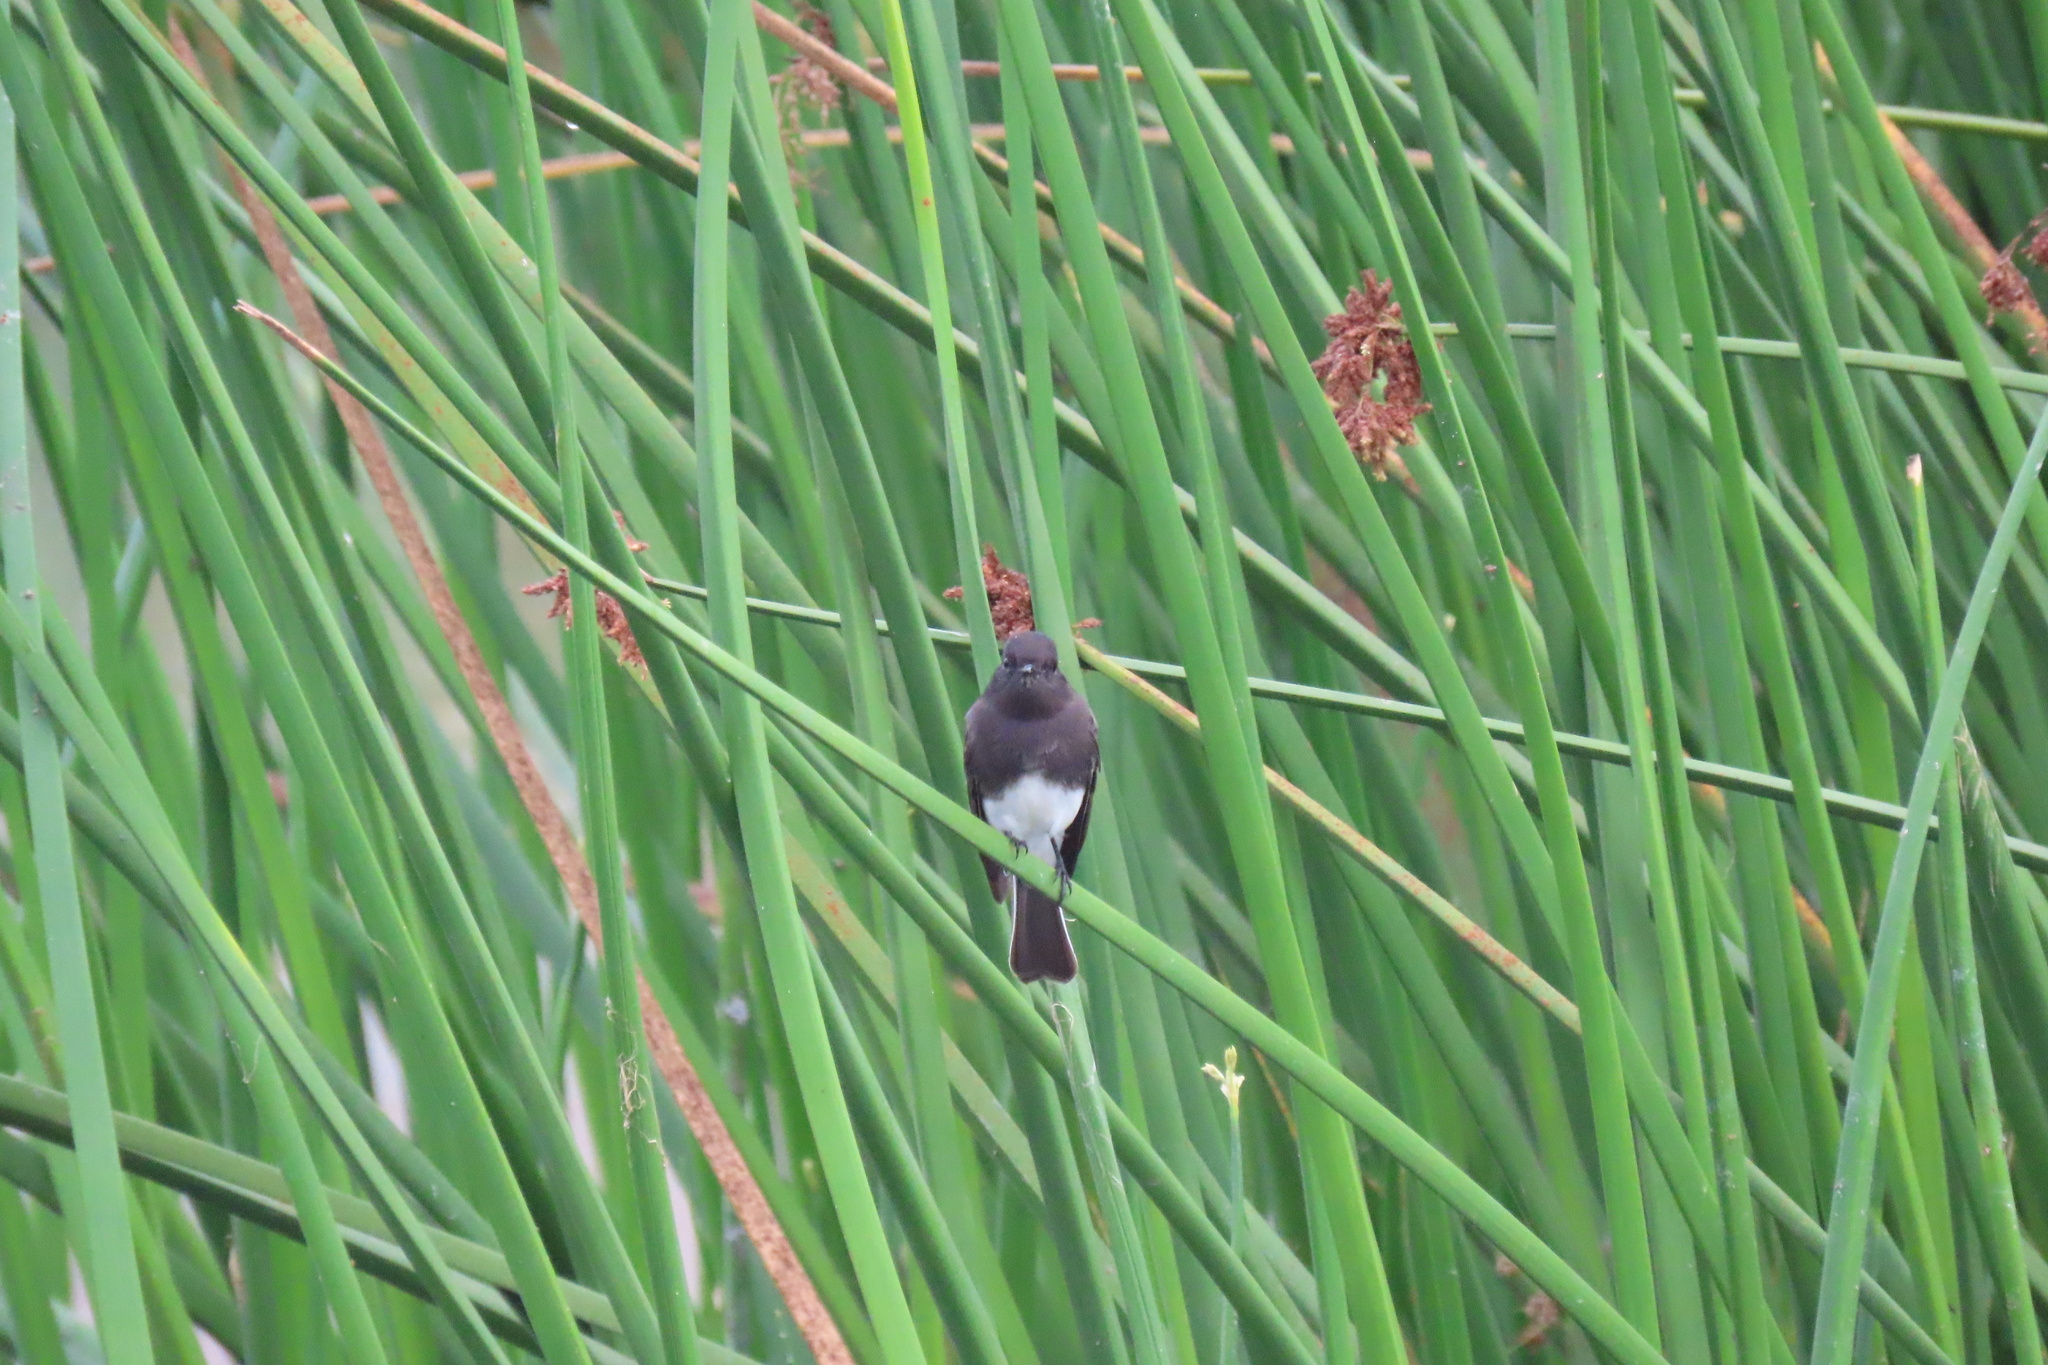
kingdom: Animalia
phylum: Chordata
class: Aves
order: Passeriformes
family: Tyrannidae
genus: Sayornis
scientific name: Sayornis nigricans
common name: Black phoebe
